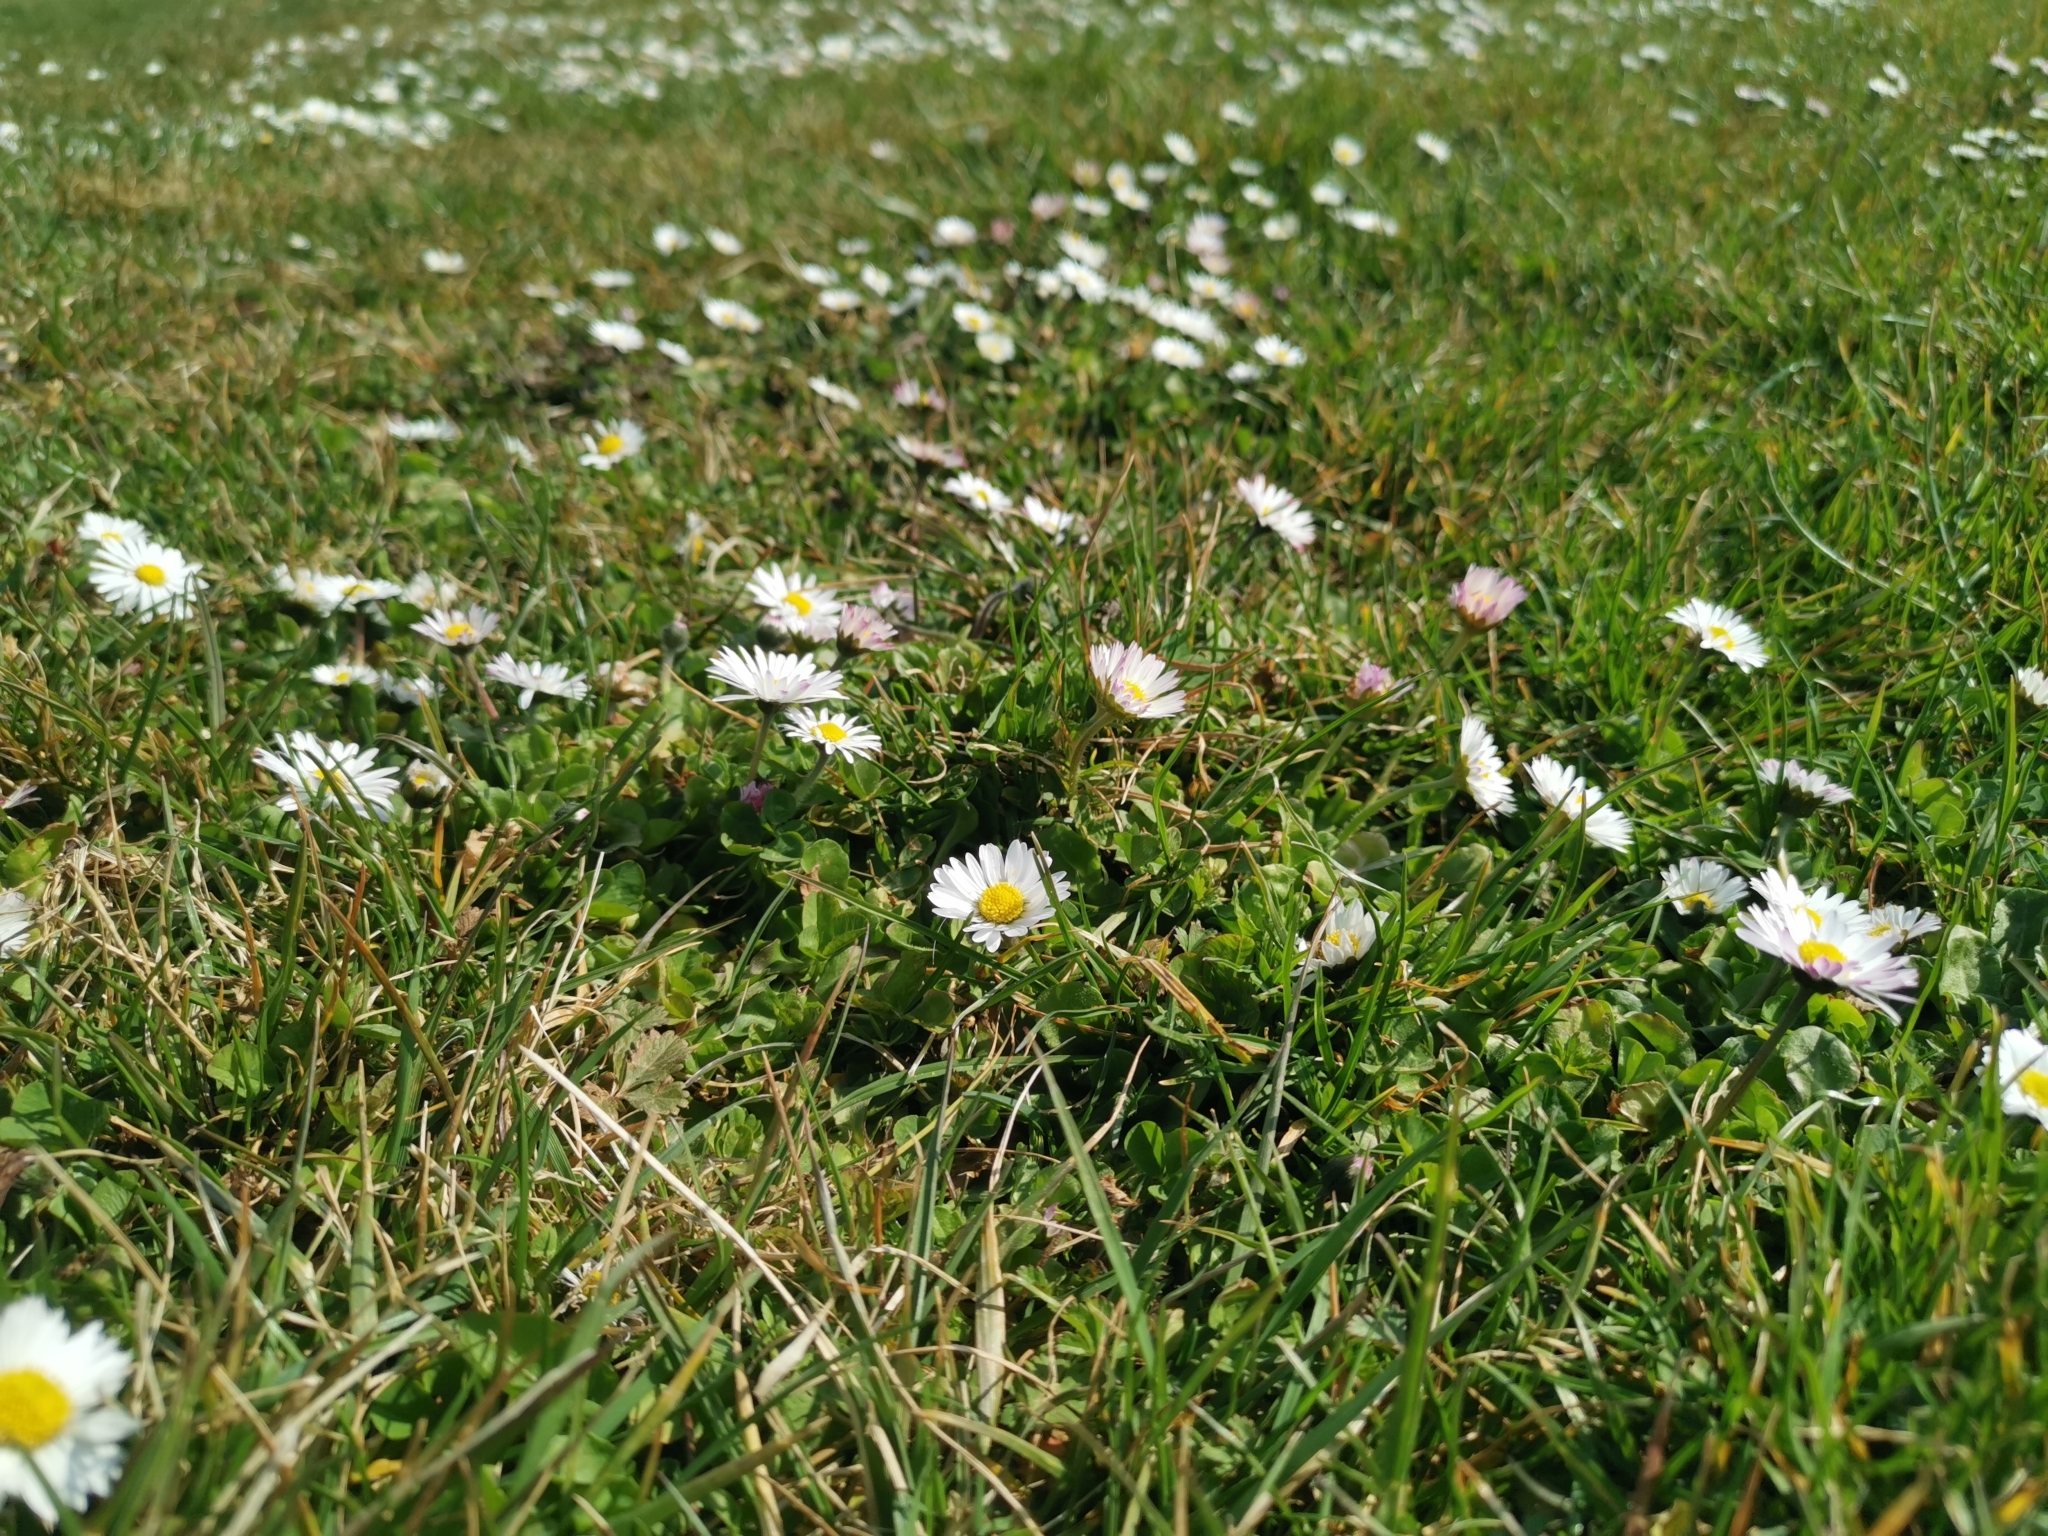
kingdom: Plantae
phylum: Tracheophyta
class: Magnoliopsida
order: Asterales
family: Asteraceae
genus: Bellis
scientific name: Bellis perennis
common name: Lawndaisy
